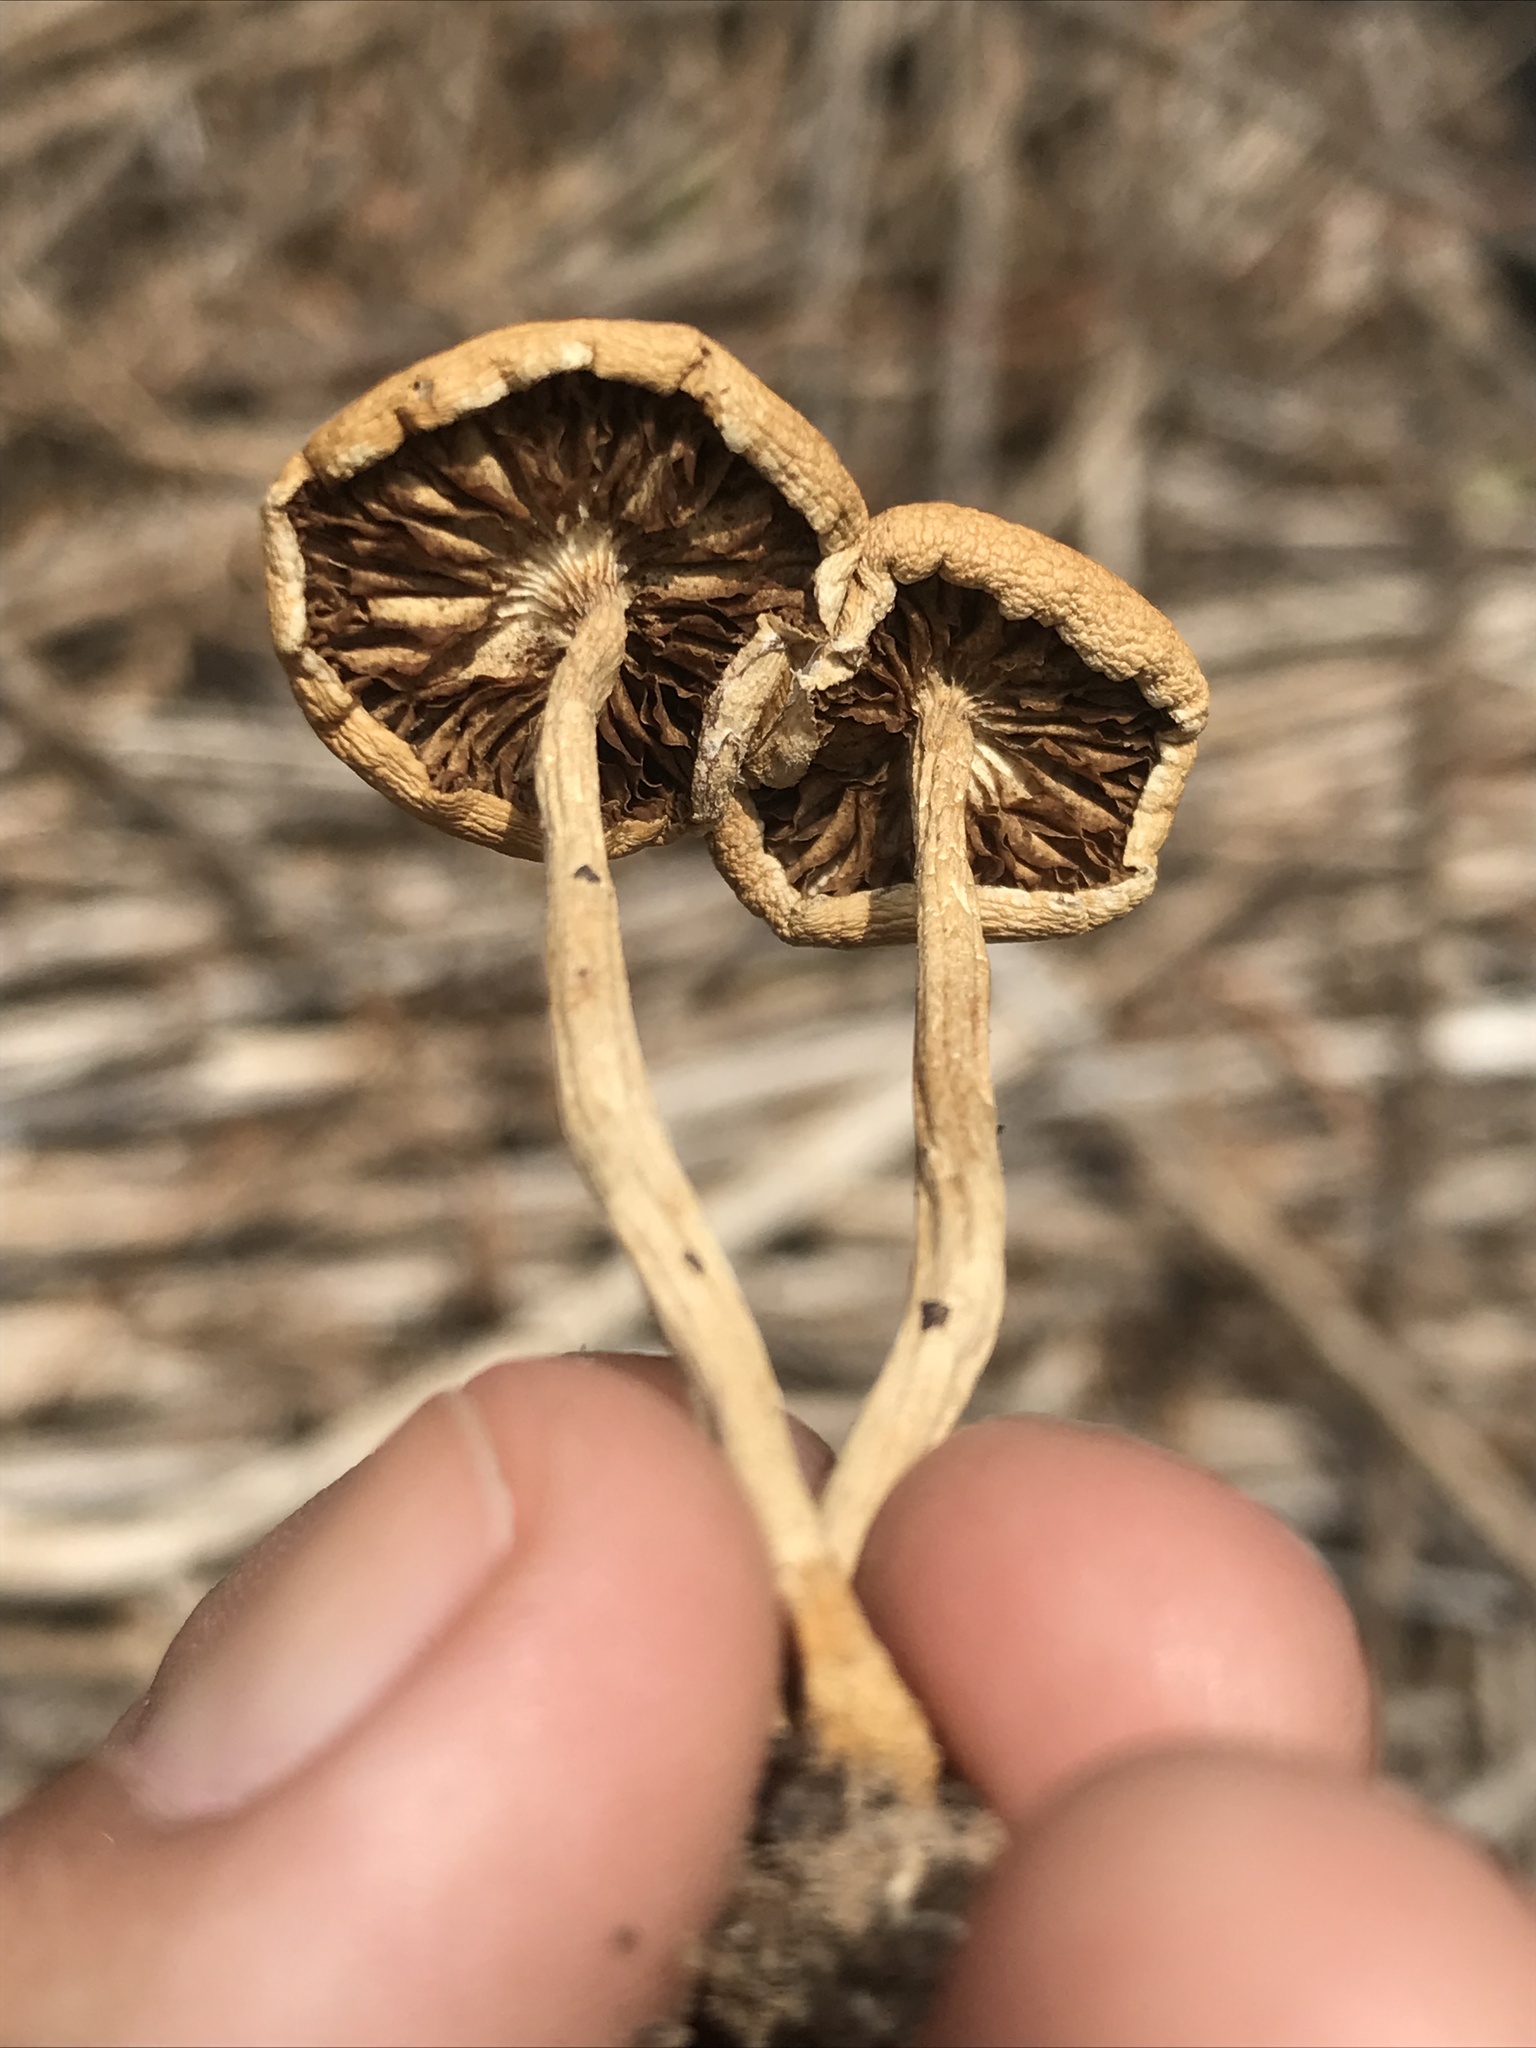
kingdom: Fungi
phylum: Basidiomycota
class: Agaricomycetes
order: Agaricales
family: Strophariaceae
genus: Agrocybe
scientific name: Agrocybe pediades
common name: Common fieldcap
